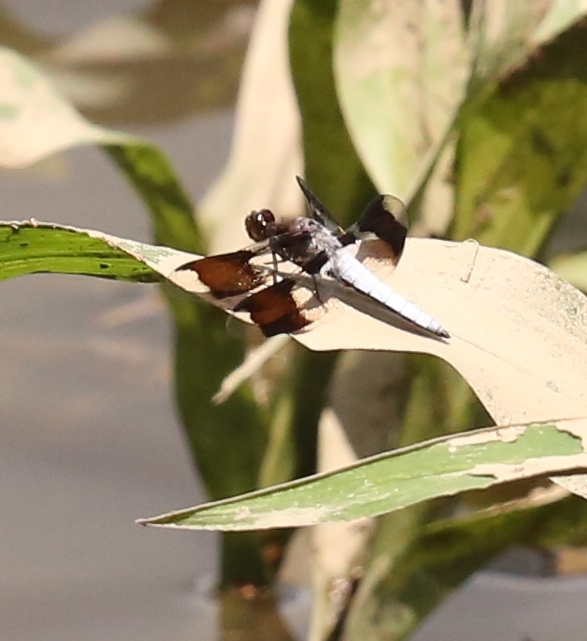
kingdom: Animalia
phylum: Arthropoda
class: Insecta
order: Odonata
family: Libellulidae
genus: Plathemis
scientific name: Plathemis lydia
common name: Common whitetail
